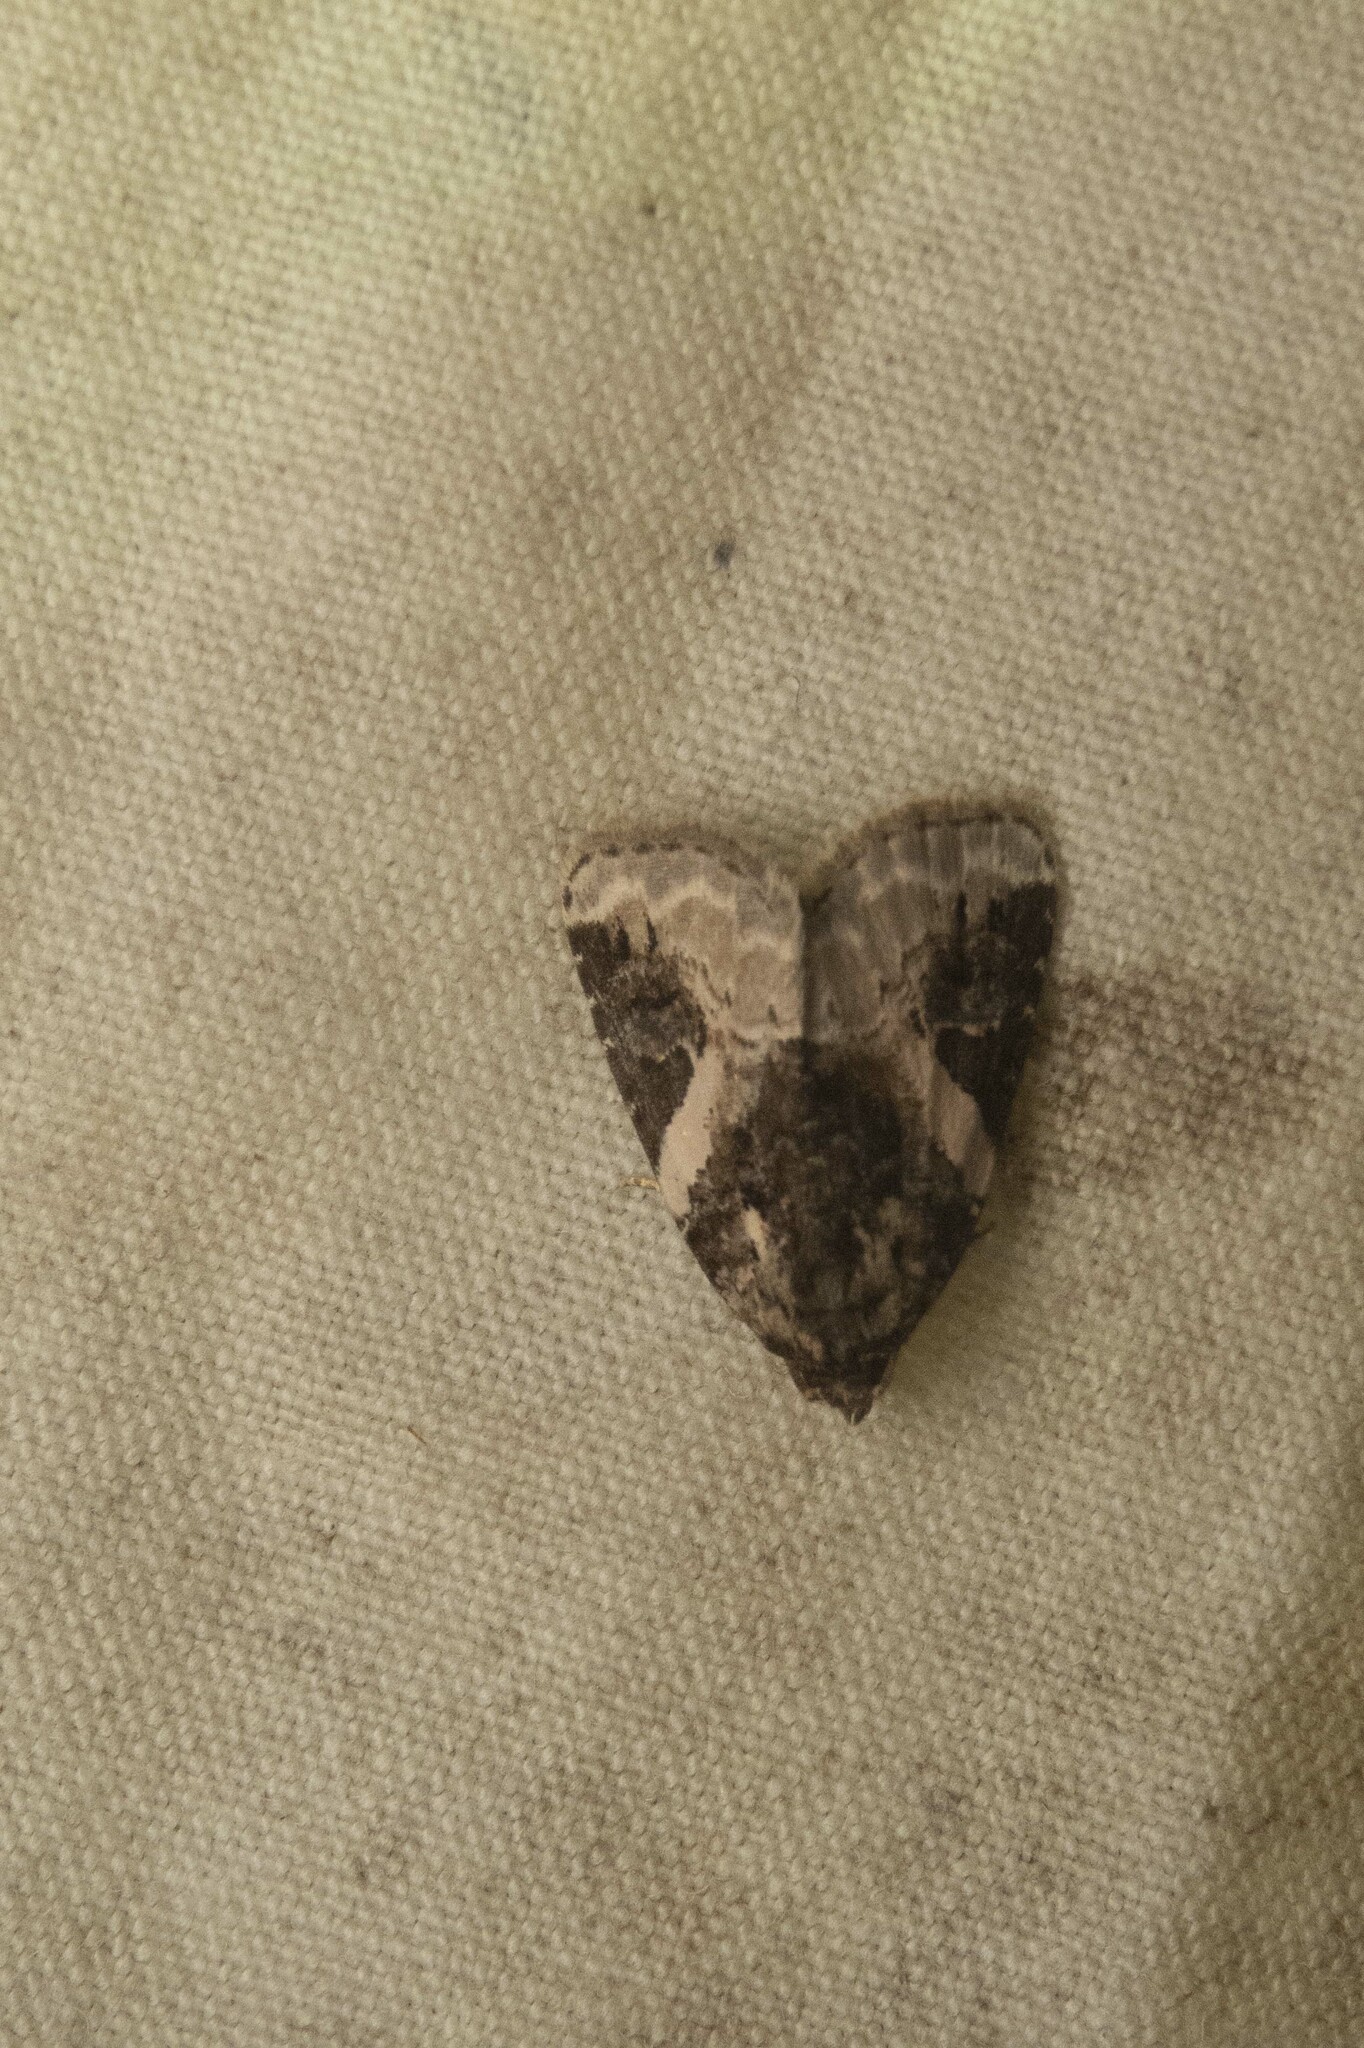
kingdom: Animalia
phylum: Arthropoda
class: Insecta
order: Lepidoptera
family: Noctuidae
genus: Pseudeustrotia
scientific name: Pseudeustrotia carneola
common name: Pink-barred lithacodia moth
